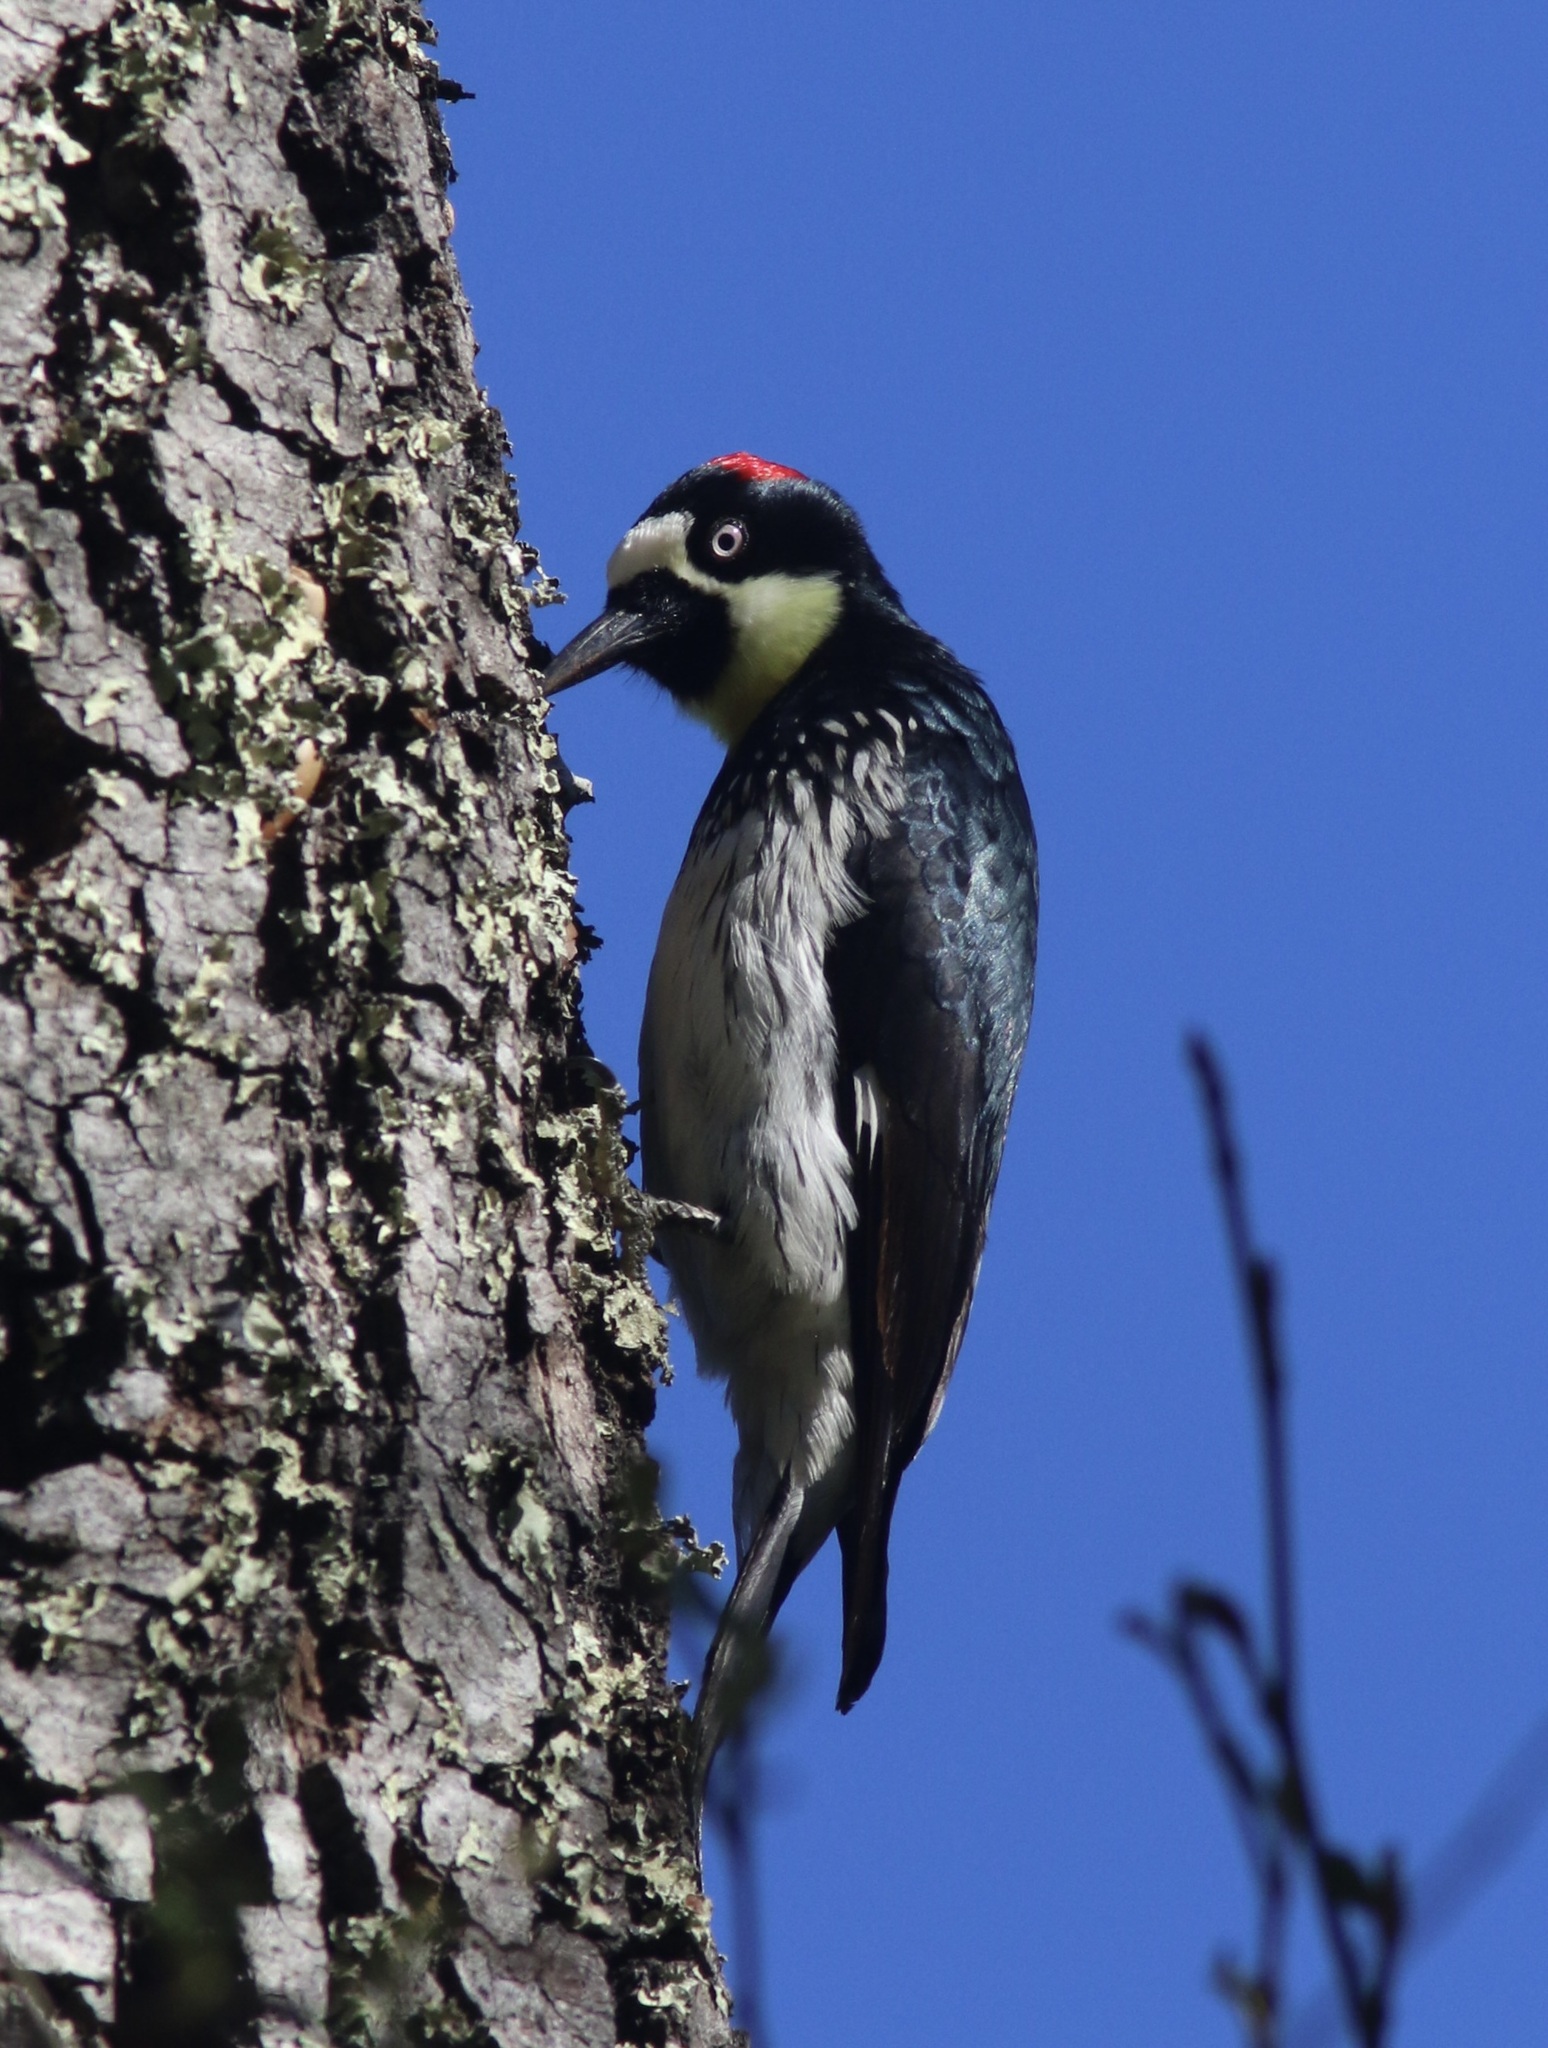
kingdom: Animalia
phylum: Chordata
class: Aves
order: Piciformes
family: Picidae
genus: Melanerpes
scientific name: Melanerpes formicivorus
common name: Acorn woodpecker
